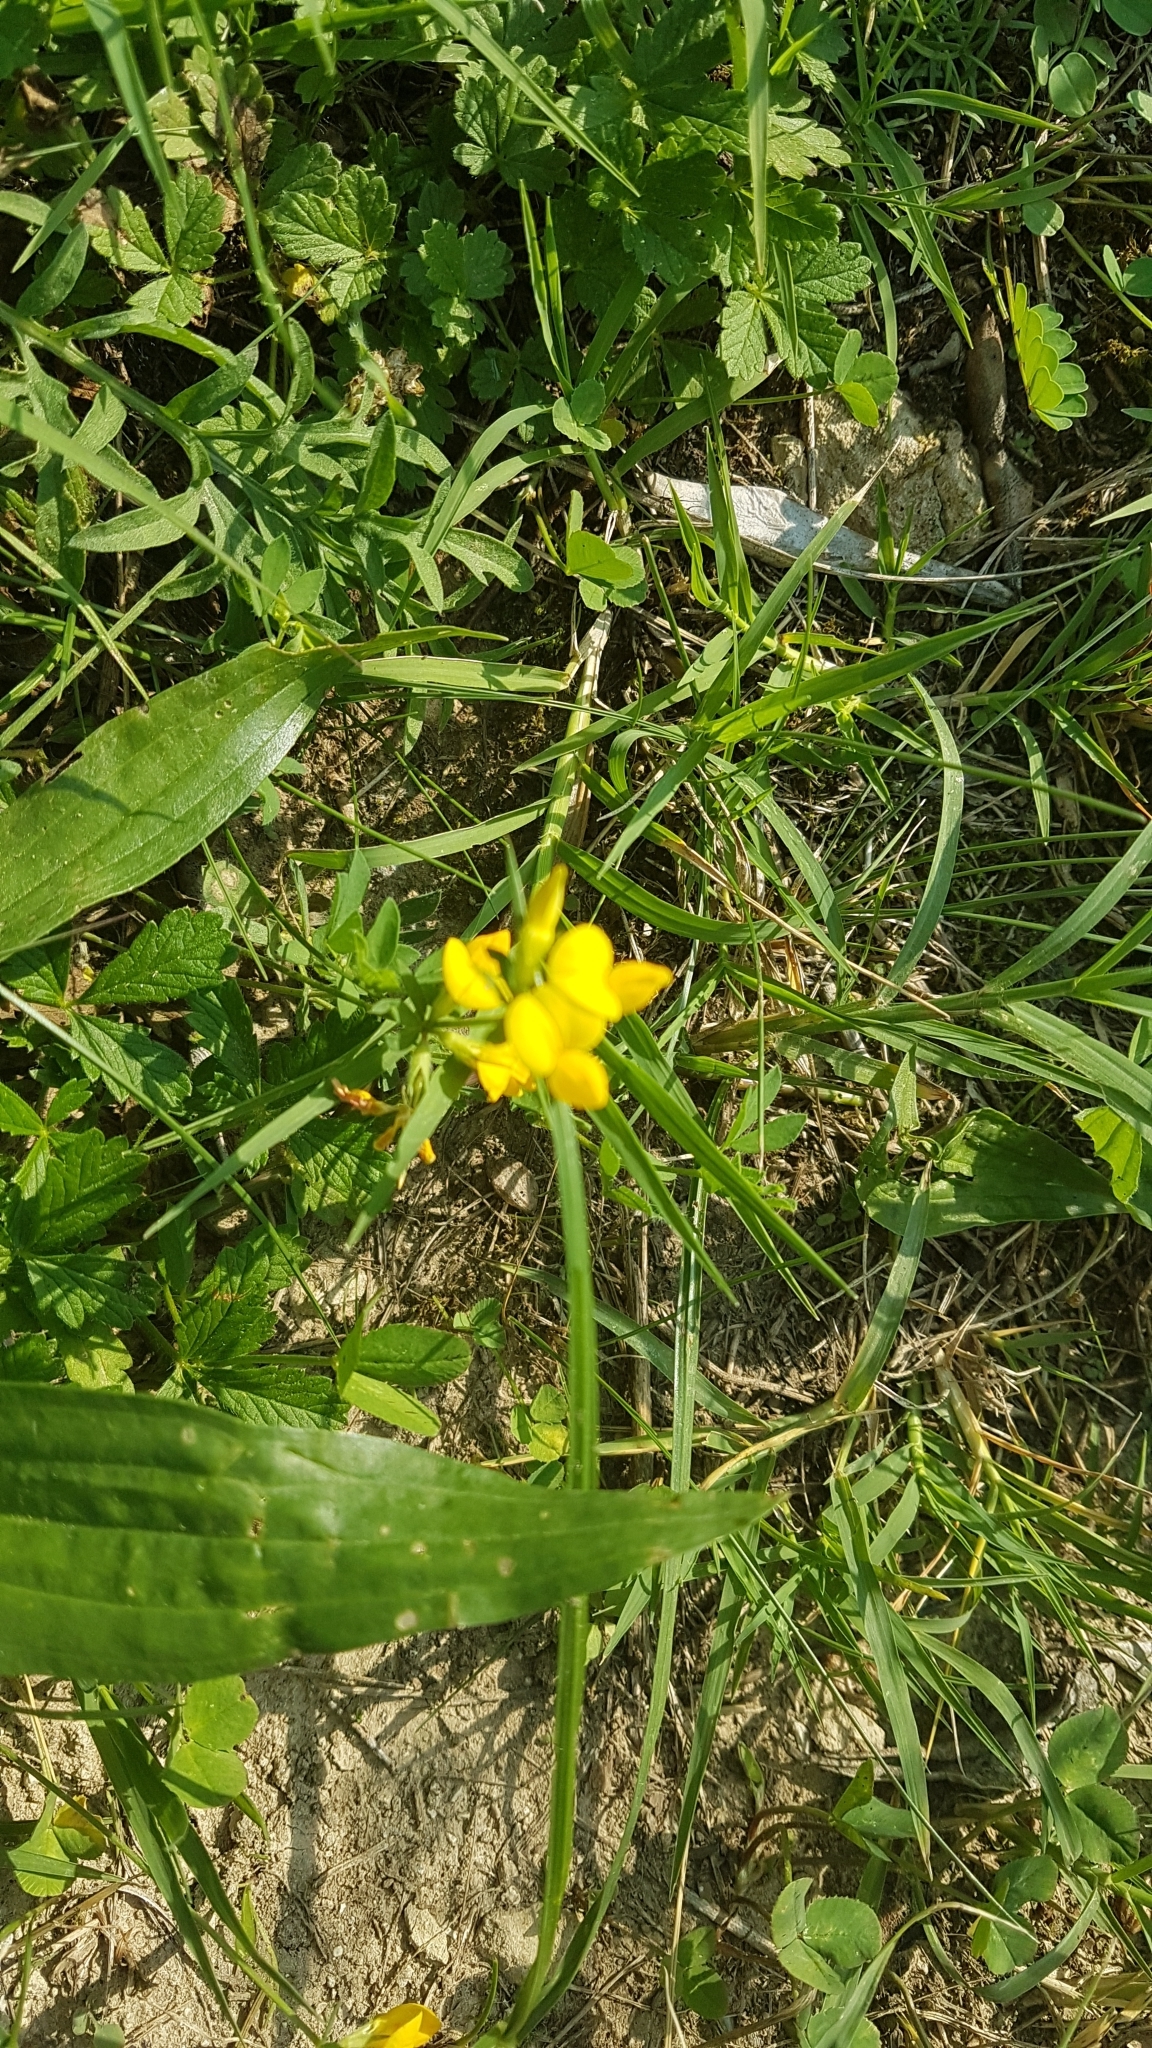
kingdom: Plantae
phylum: Tracheophyta
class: Magnoliopsida
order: Fabales
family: Fabaceae
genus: Lotus
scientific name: Lotus corniculatus
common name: Common bird's-foot-trefoil
